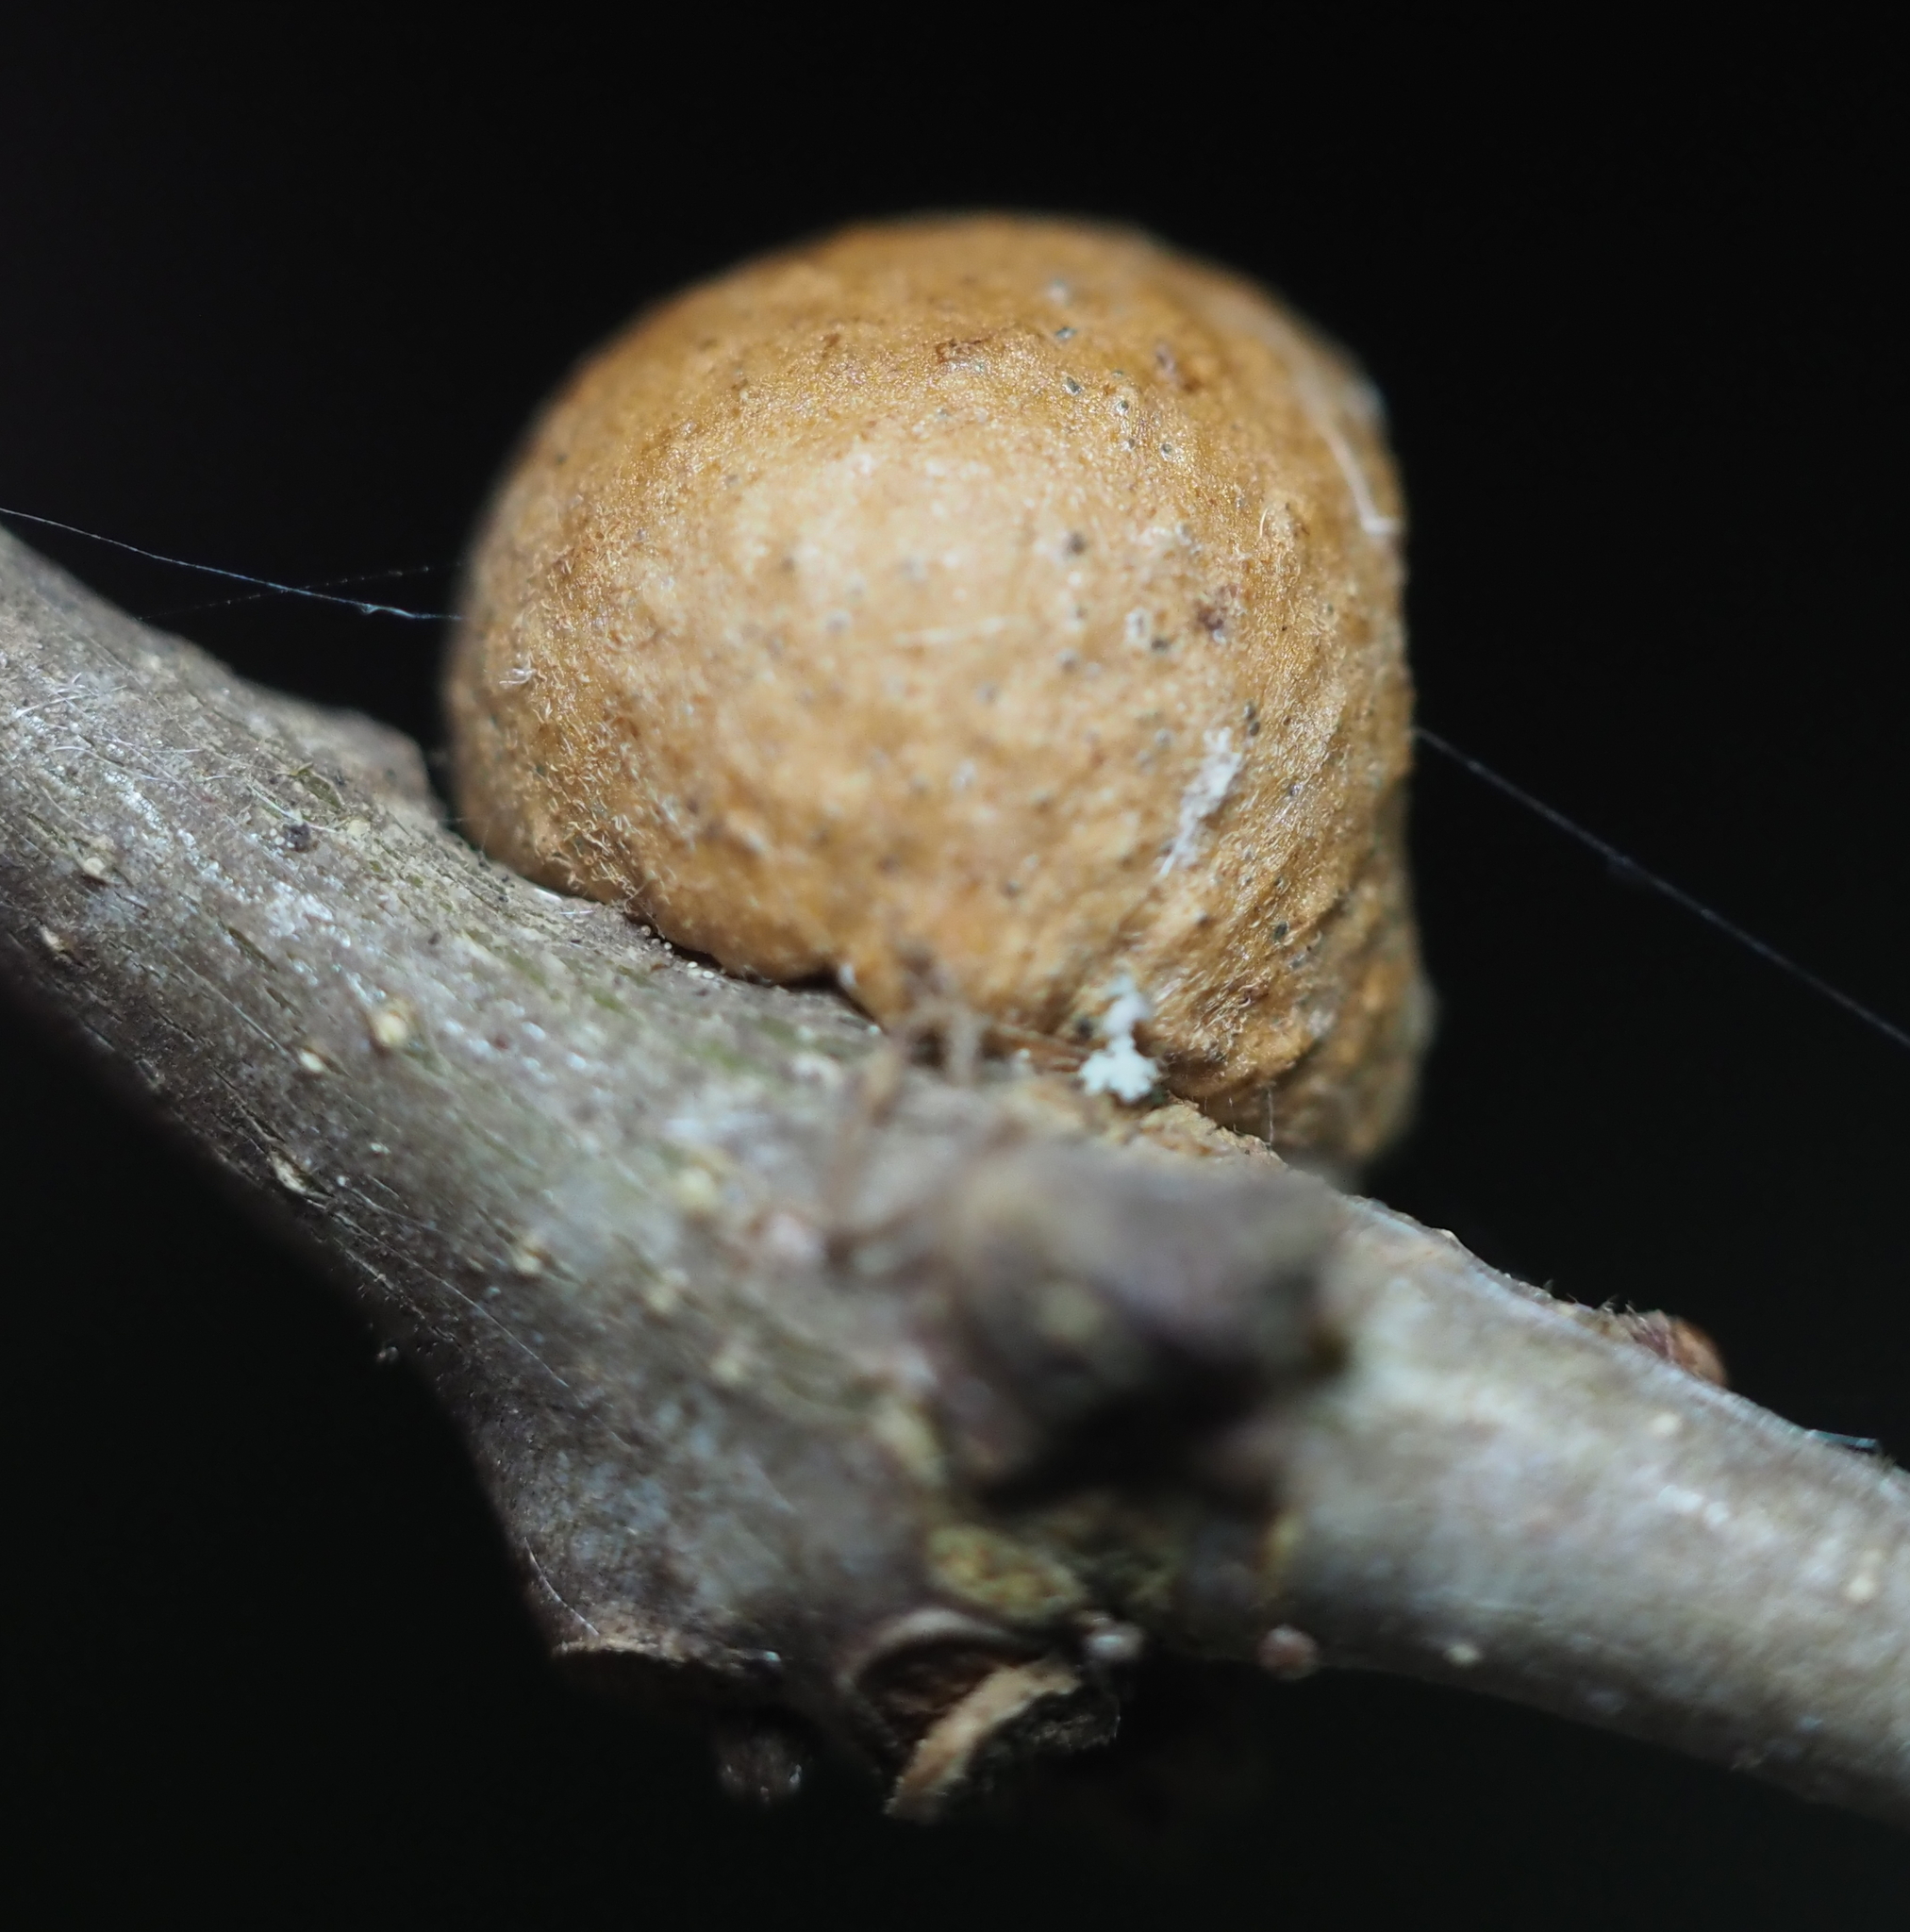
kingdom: Animalia
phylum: Arthropoda
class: Insecta
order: Hymenoptera
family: Cynipidae
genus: Disholcaspis
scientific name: Disholcaspis quercusglobulus
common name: Round bullet gall wasp
